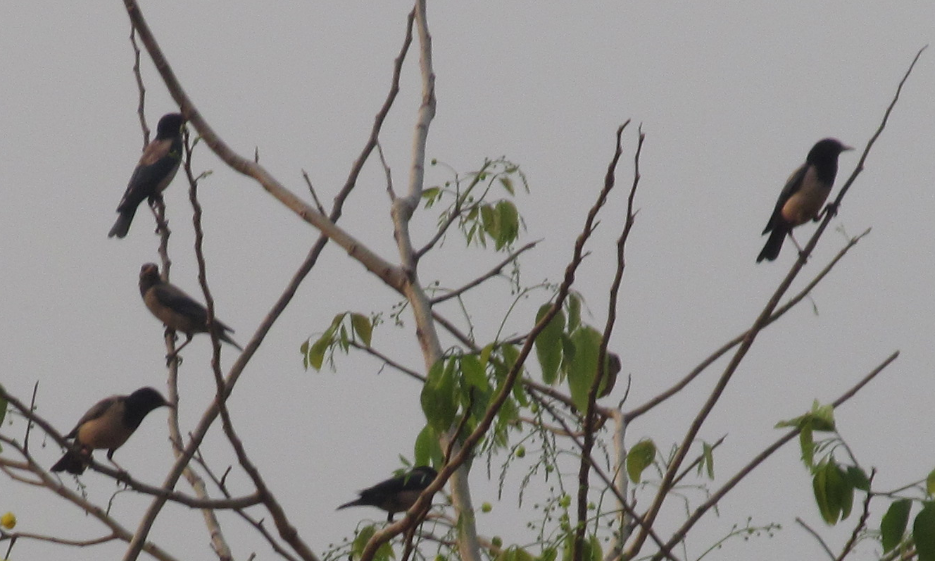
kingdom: Animalia
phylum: Chordata
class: Aves
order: Passeriformes
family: Sturnidae
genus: Pastor
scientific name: Pastor roseus
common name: Rosy starling
